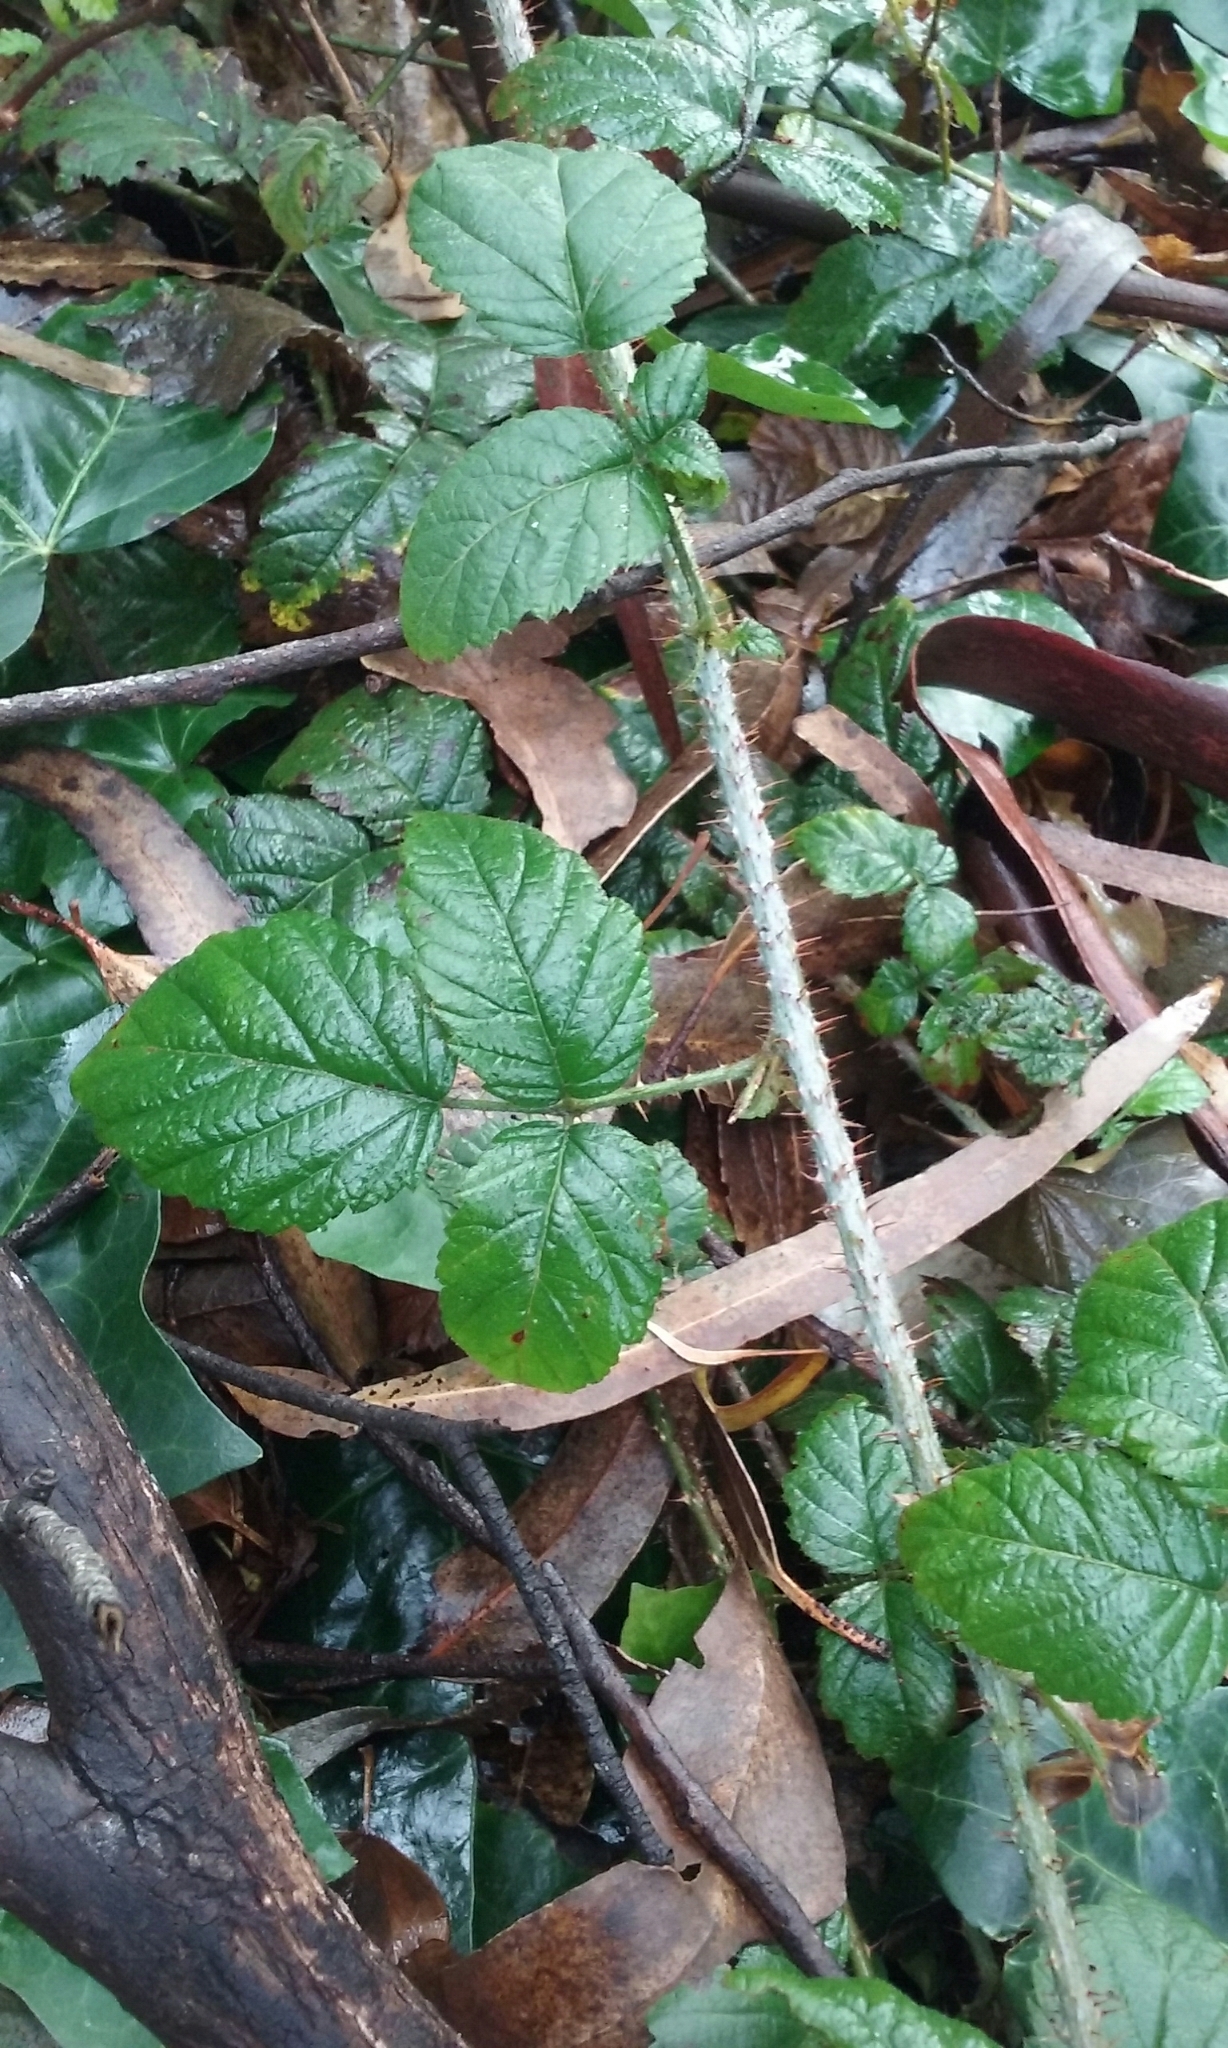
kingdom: Plantae
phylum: Tracheophyta
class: Magnoliopsida
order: Rosales
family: Rosaceae
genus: Rubus
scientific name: Rubus ursinus
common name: Pacific blackberry
